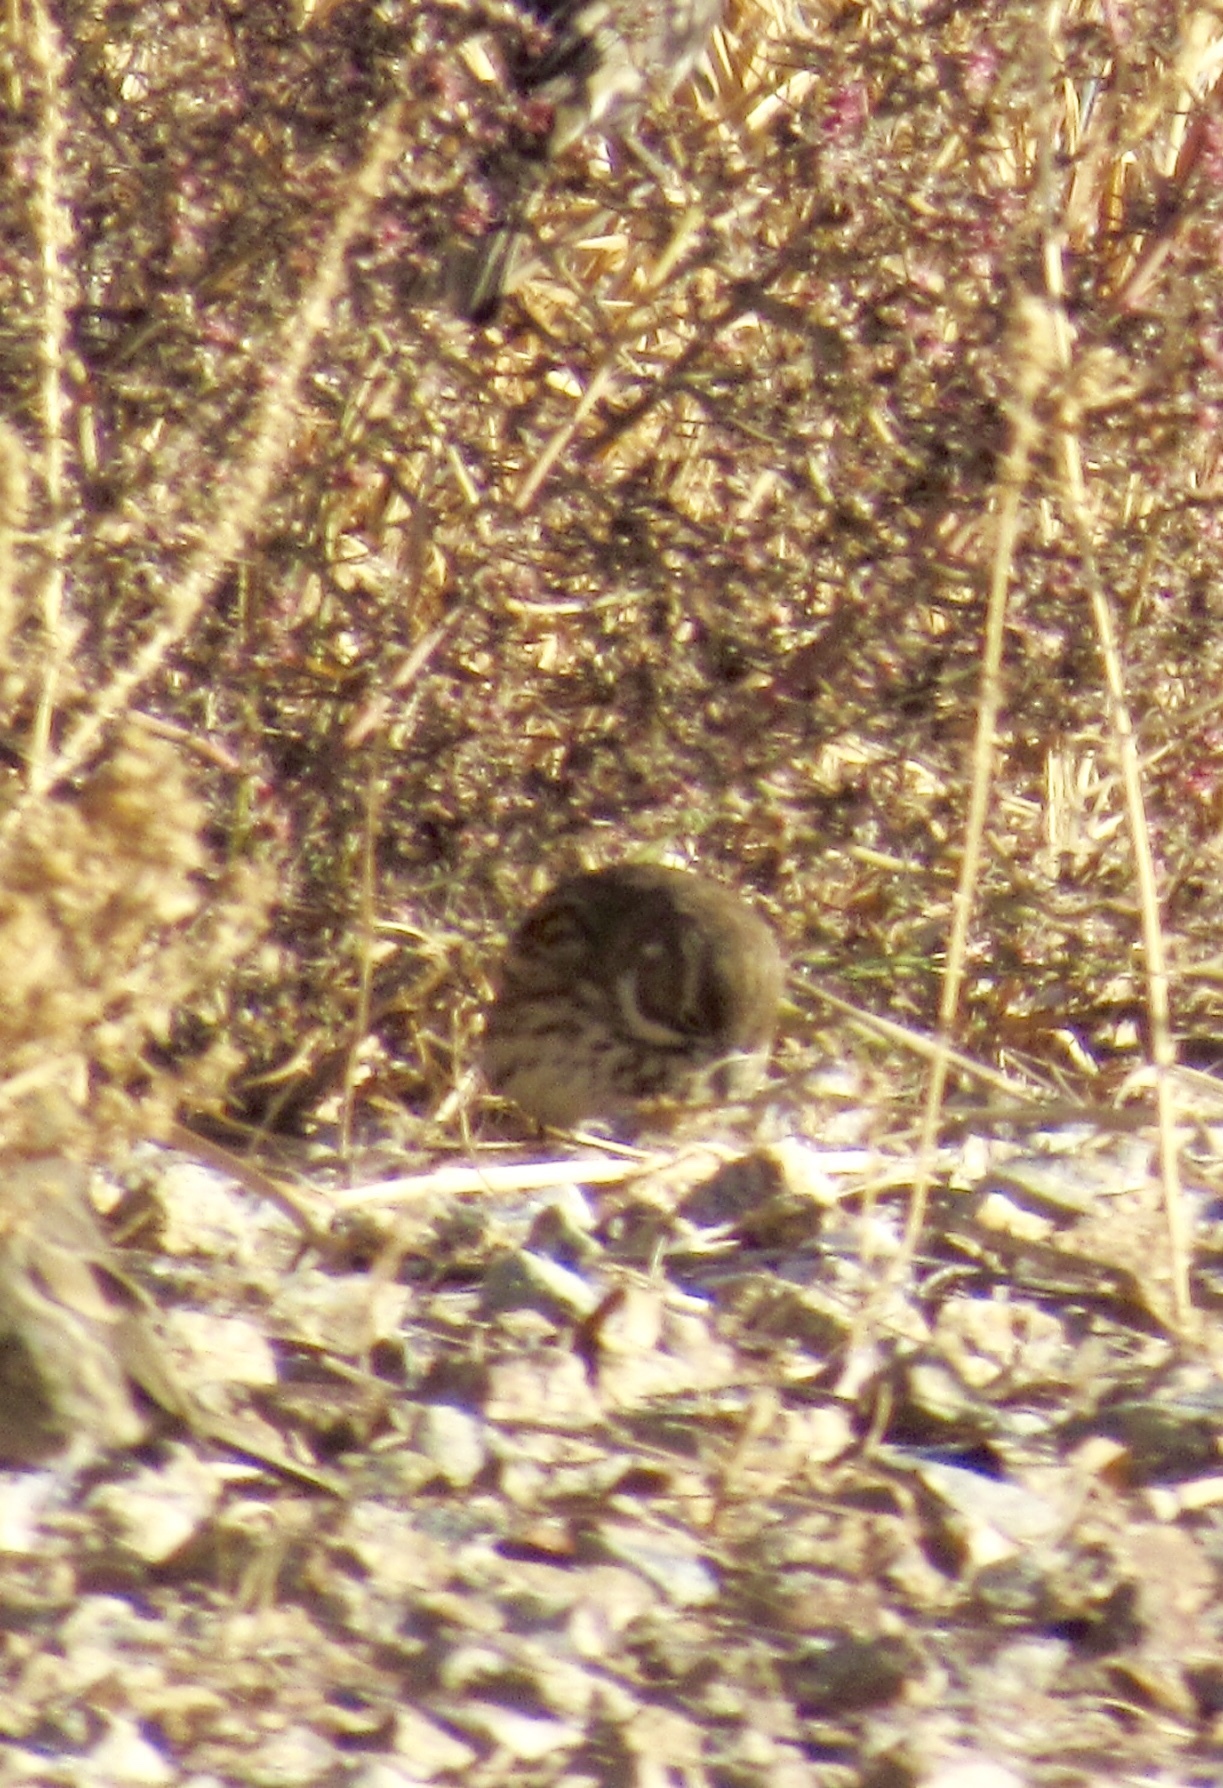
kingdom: Animalia
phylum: Chordata
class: Aves
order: Passeriformes
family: Passerellidae
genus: Calamospiza
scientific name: Calamospiza melanocorys
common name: Lark bunting
